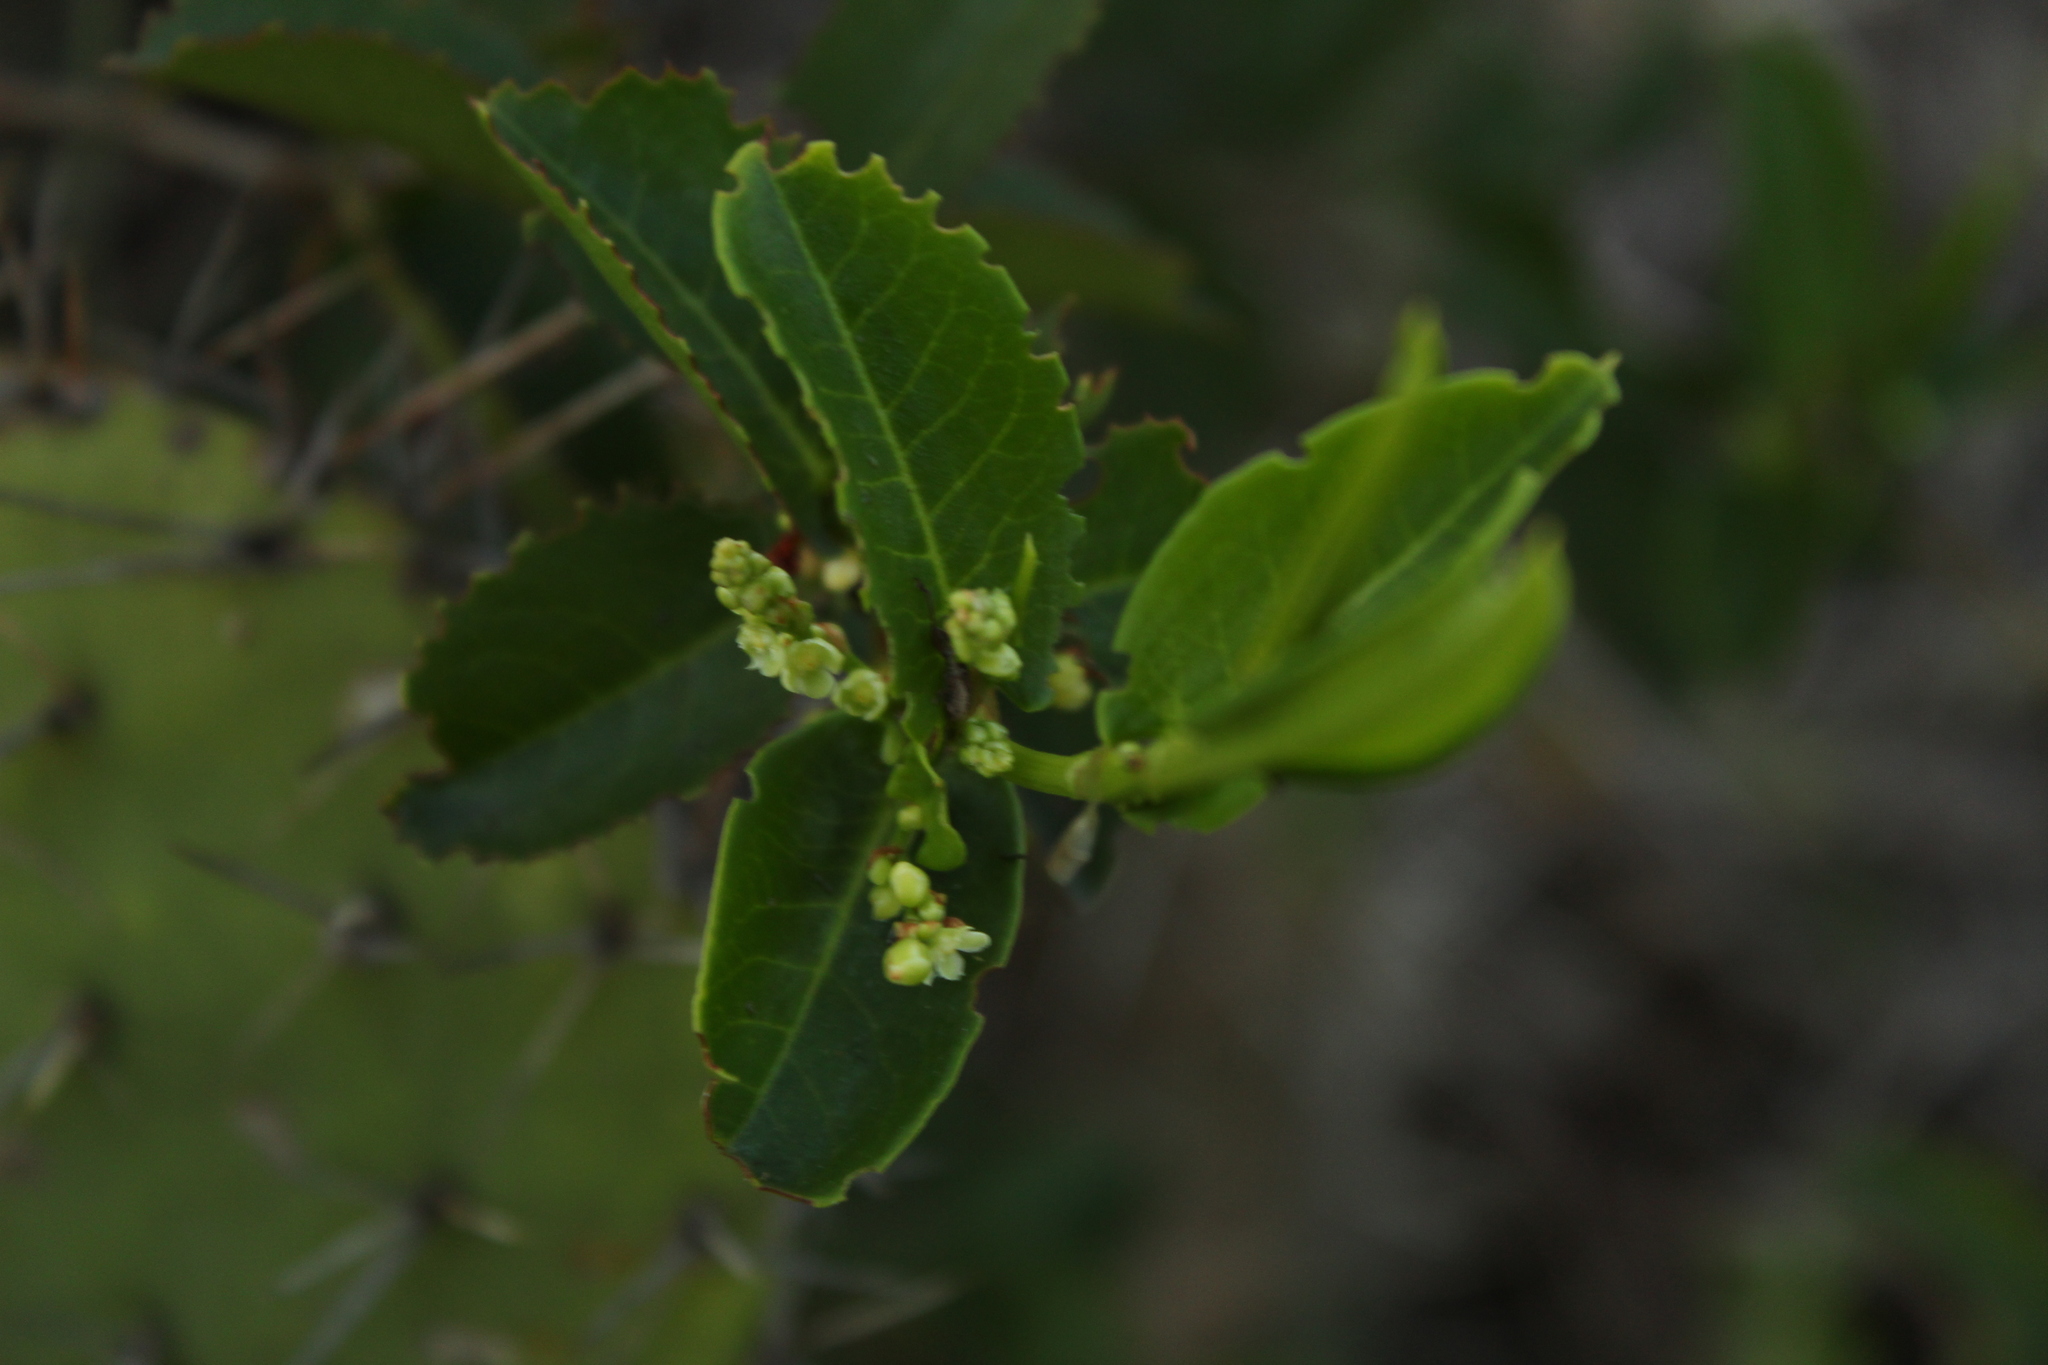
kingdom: Plantae
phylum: Tracheophyta
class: Magnoliopsida
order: Caryophyllales
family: Polygonaceae
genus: Muehlenbeckia
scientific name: Muehlenbeckia tamnifolia
